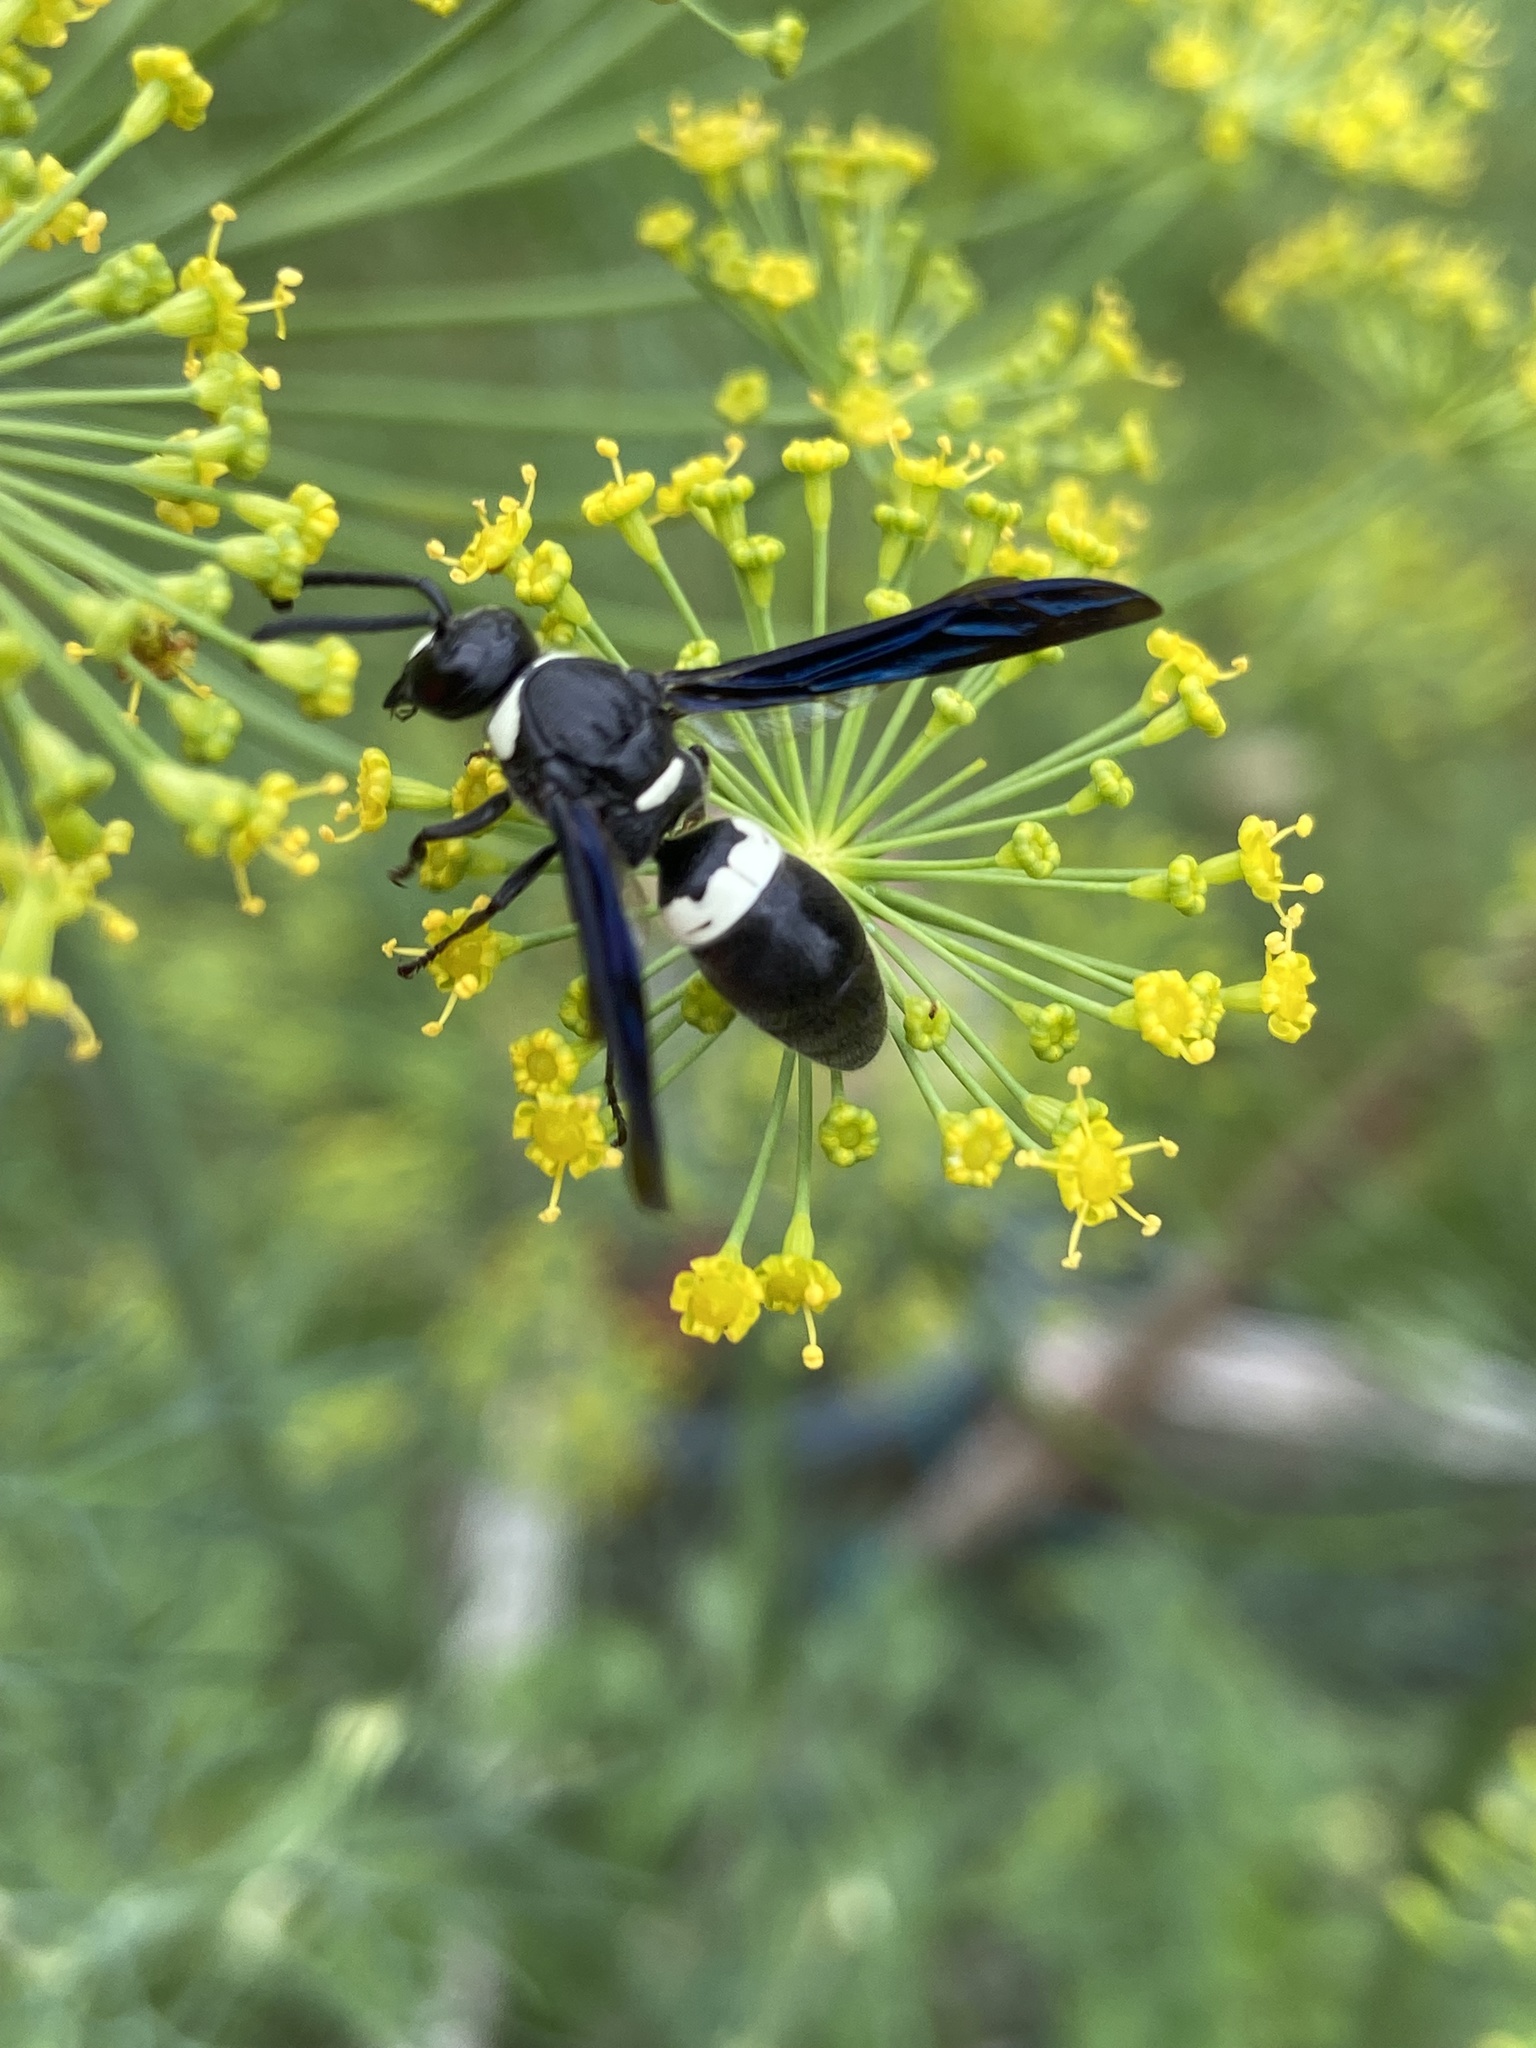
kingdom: Animalia
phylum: Arthropoda
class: Insecta
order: Hymenoptera
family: Eumenidae
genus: Monobia
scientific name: Monobia quadridens
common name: Four-toothed mason wasp
